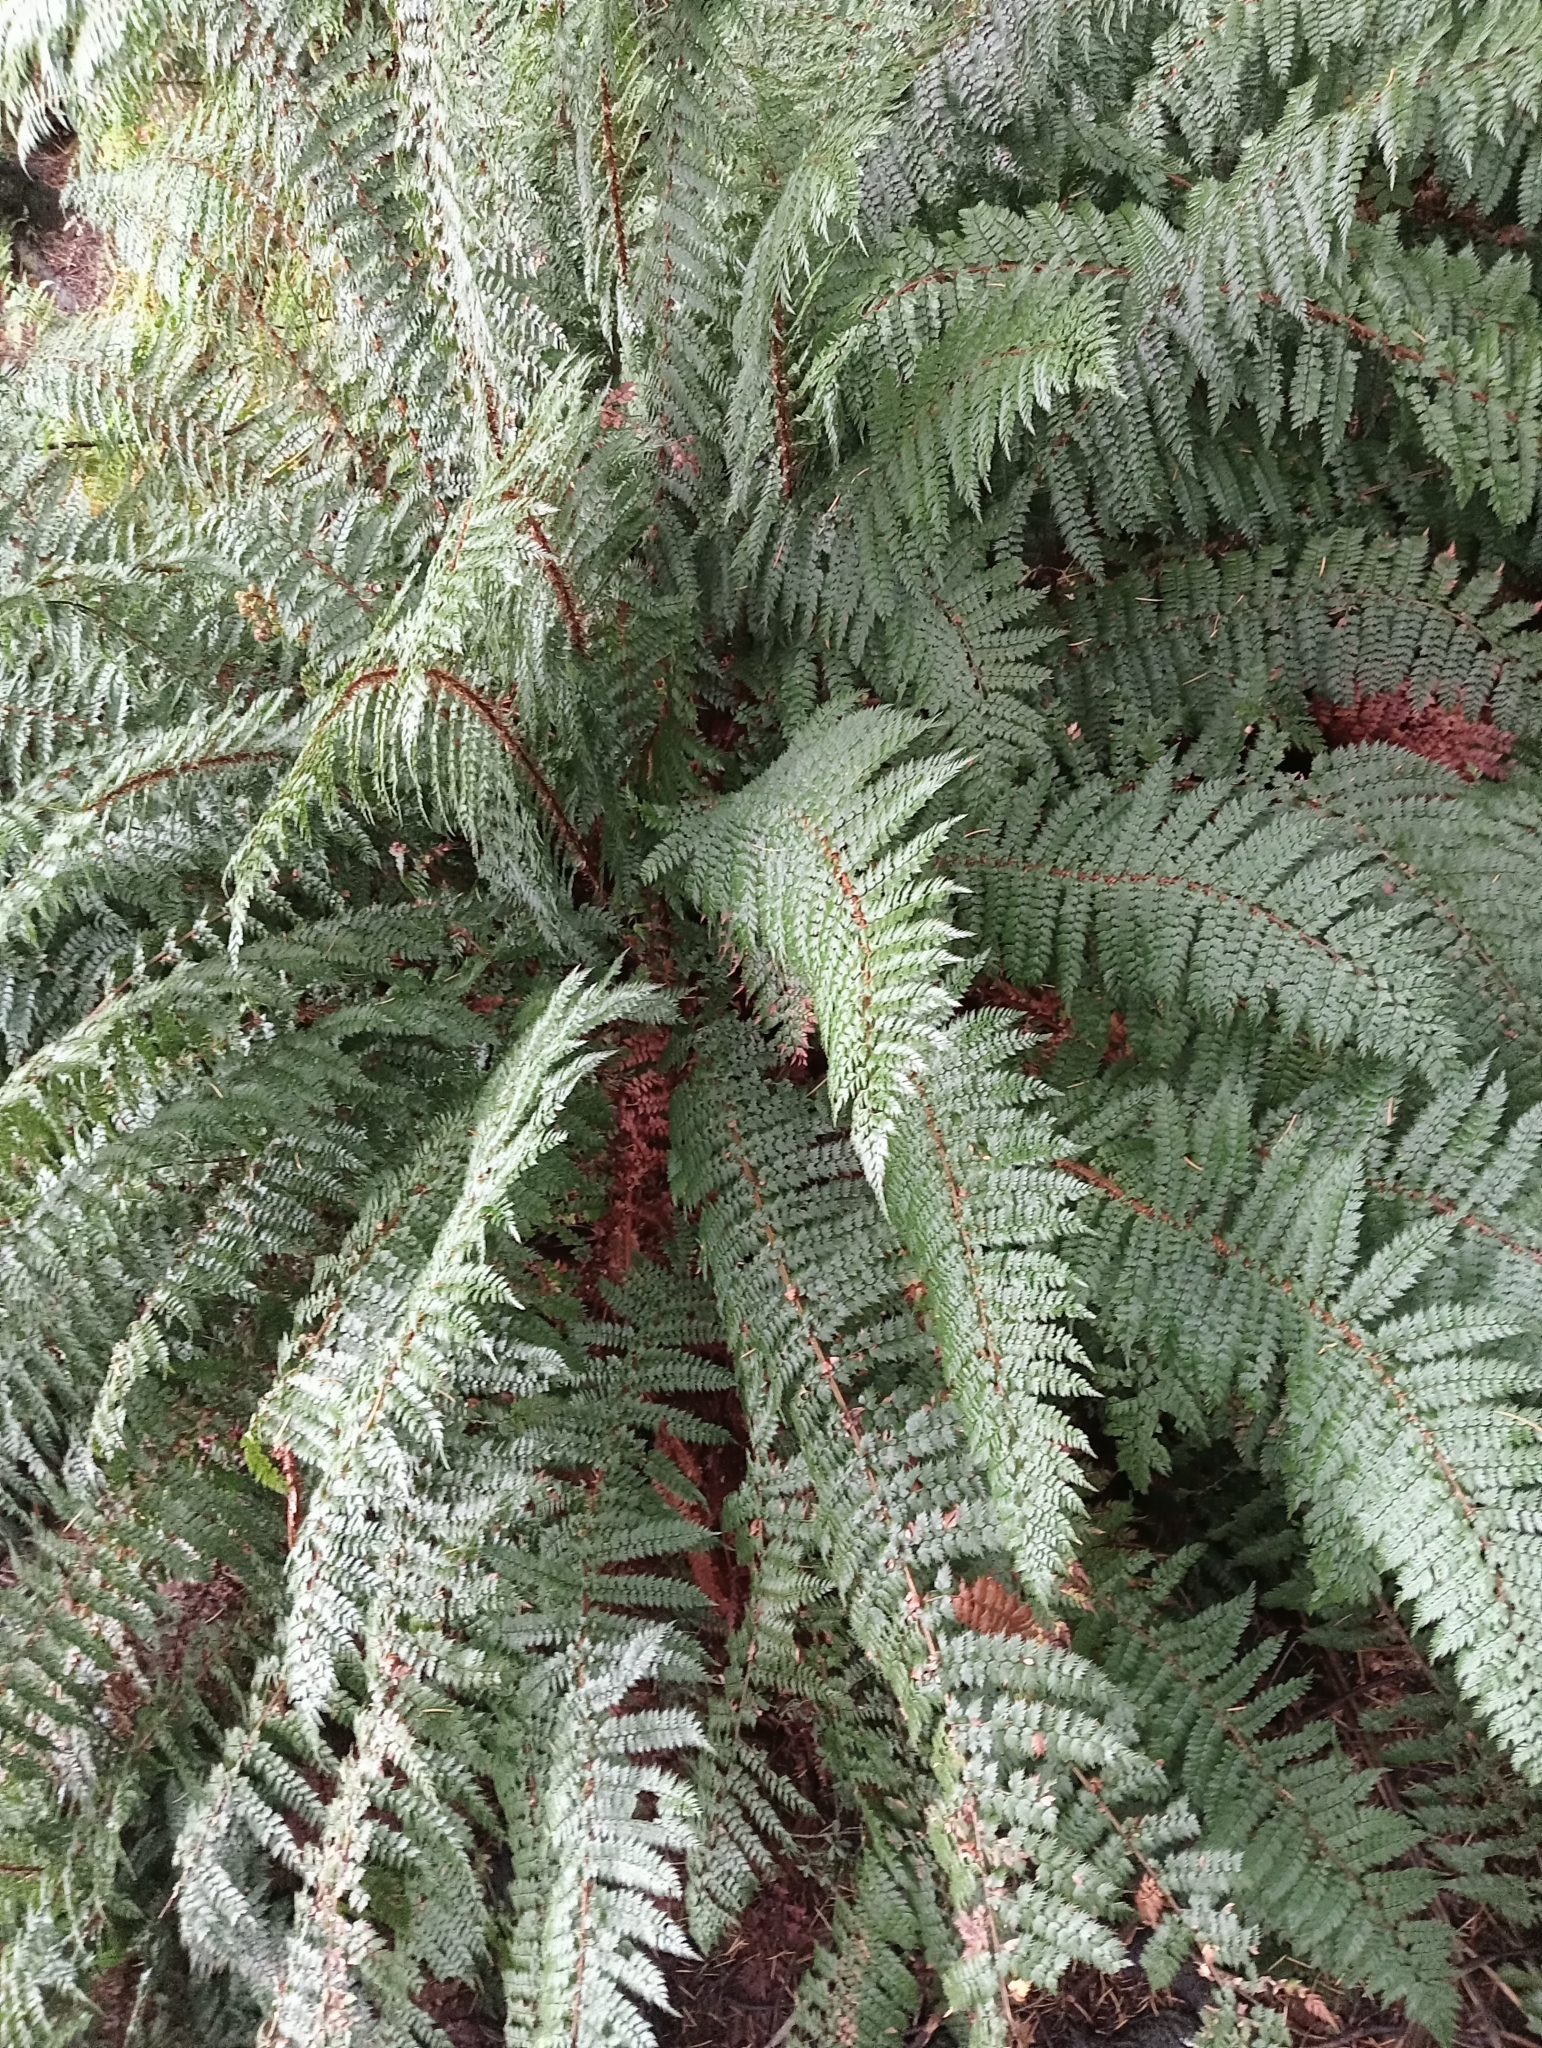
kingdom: Plantae
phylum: Tracheophyta
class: Polypodiopsida
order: Polypodiales
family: Dryopteridaceae
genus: Polystichum
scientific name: Polystichum vestitum
